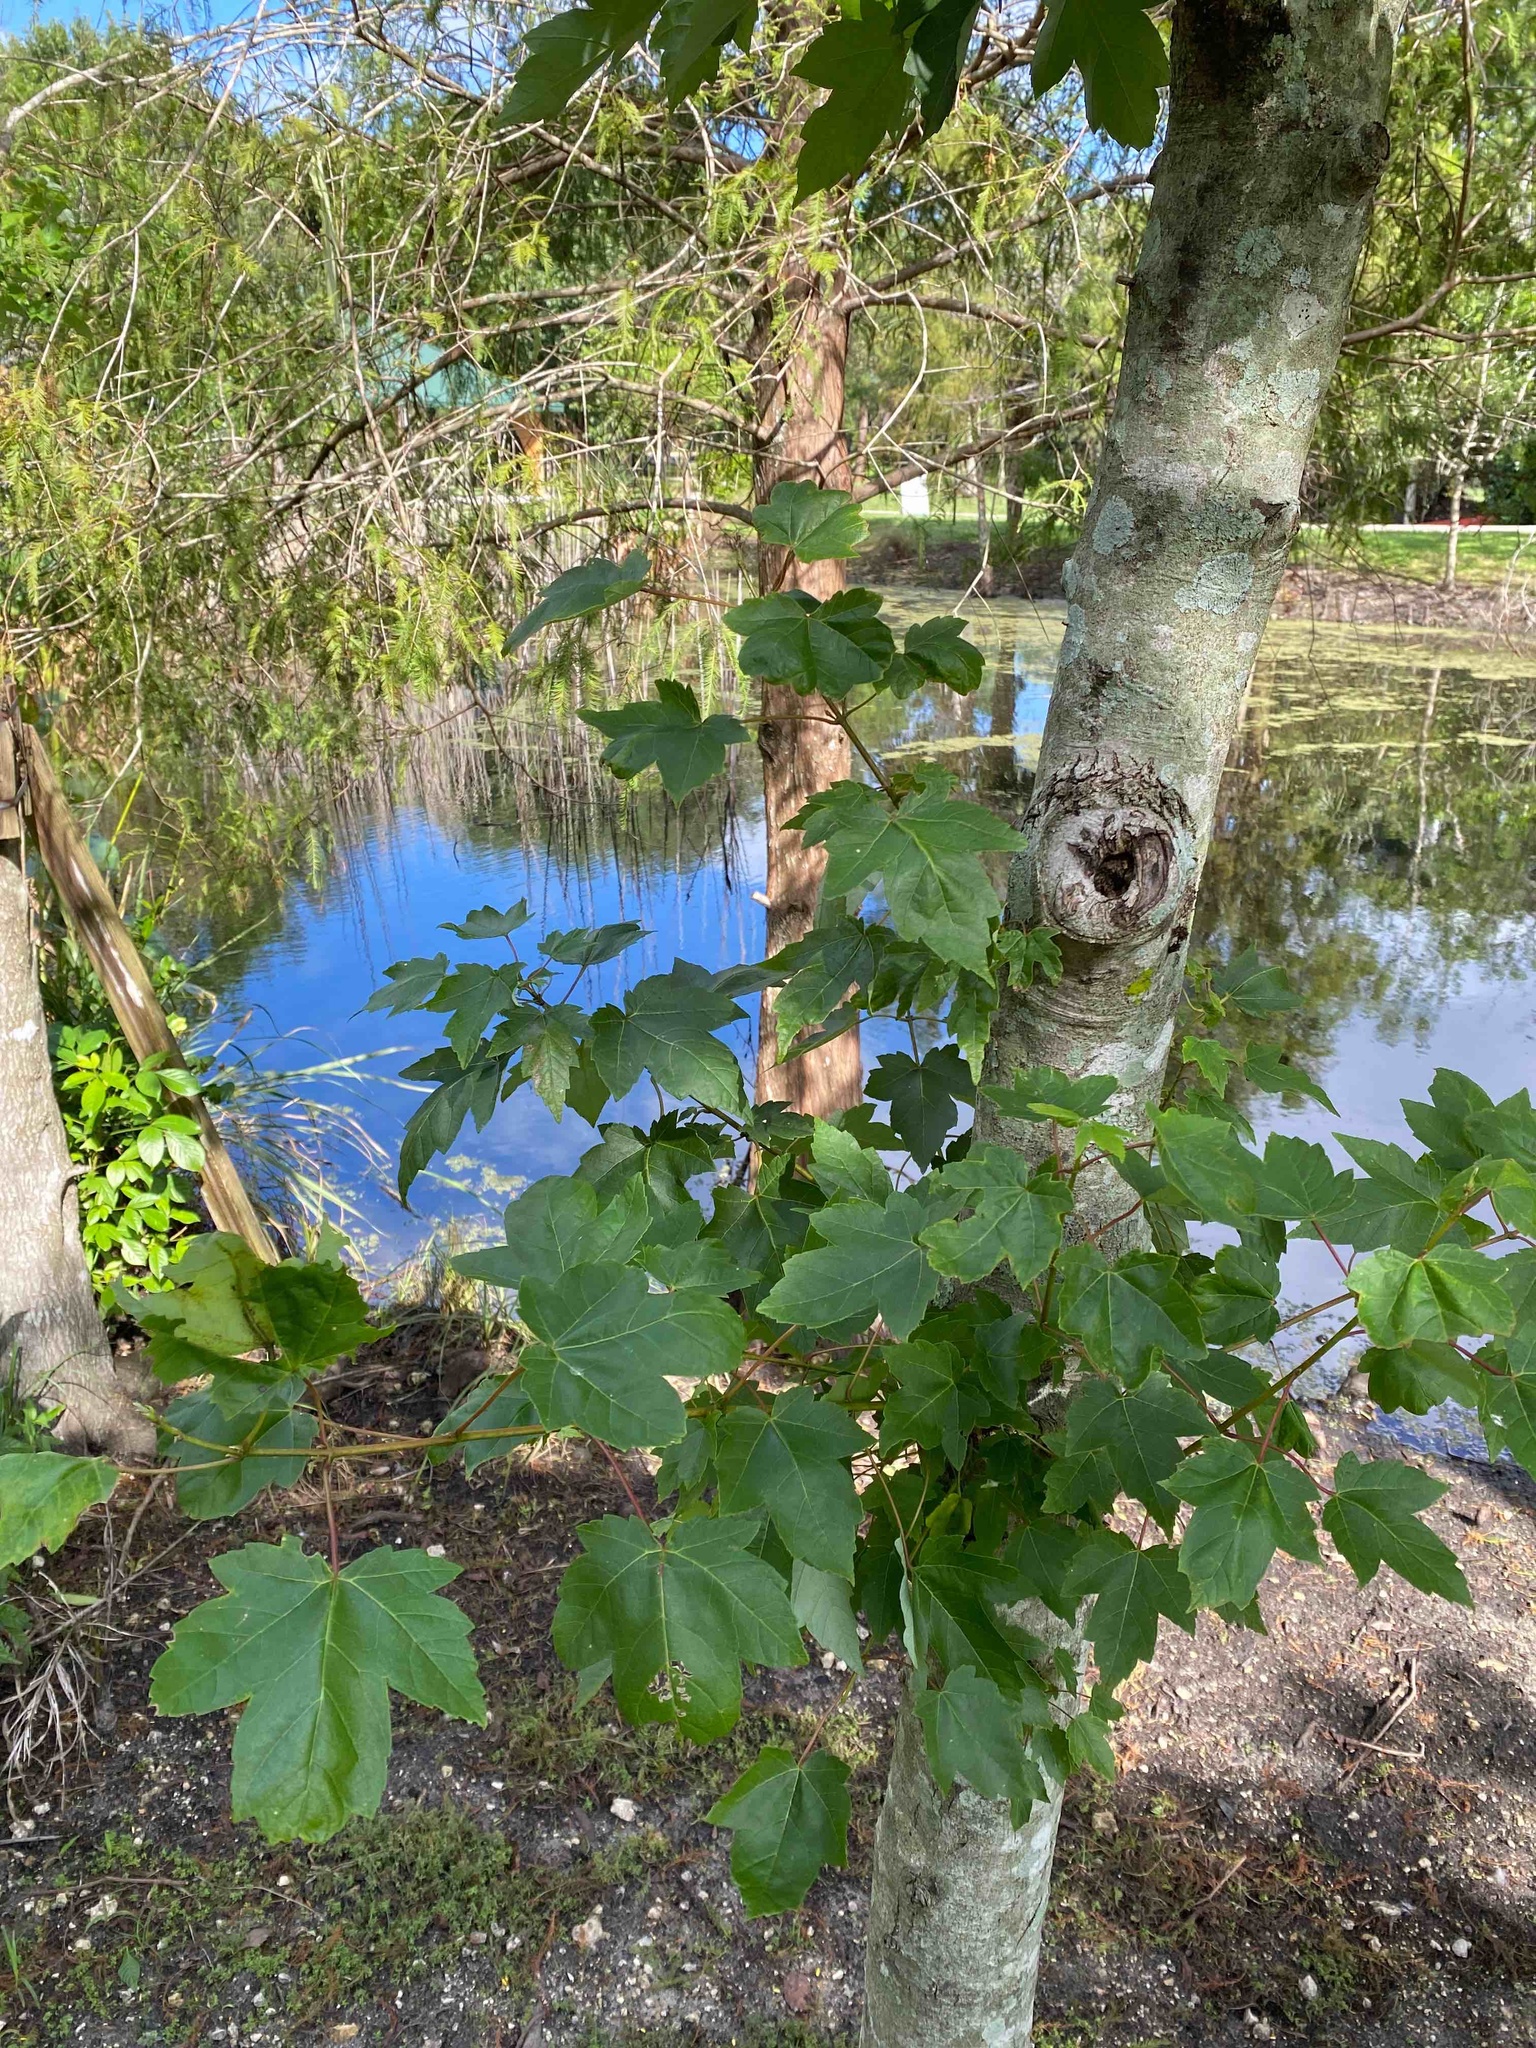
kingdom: Plantae
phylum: Tracheophyta
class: Magnoliopsida
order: Sapindales
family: Sapindaceae
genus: Acer
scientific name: Acer rubrum
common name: Red maple
